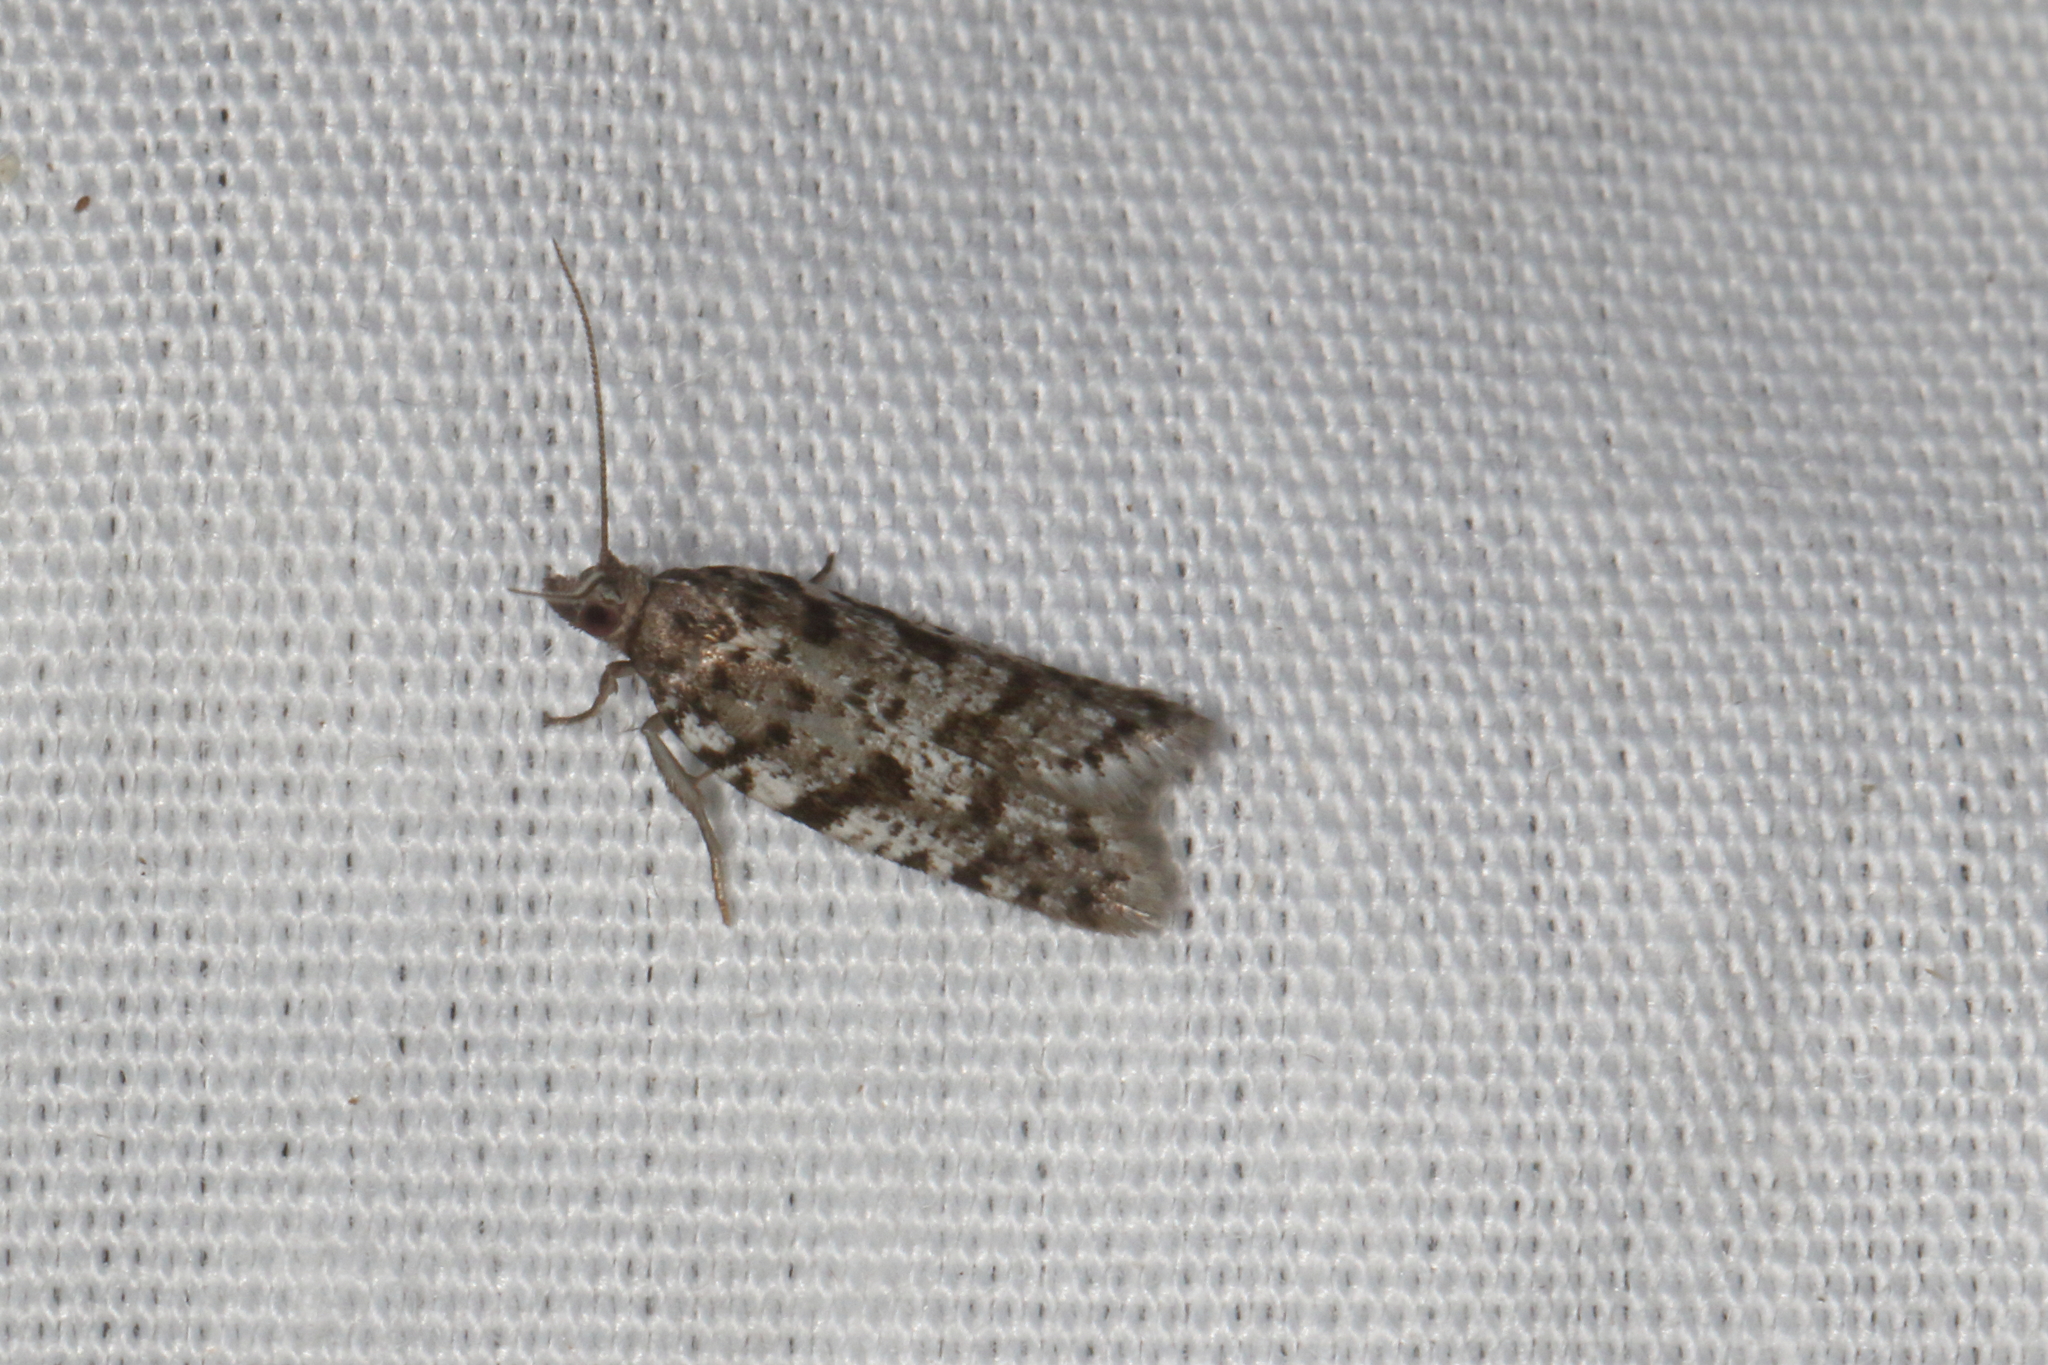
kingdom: Animalia
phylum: Arthropoda
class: Insecta
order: Lepidoptera
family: Tortricidae
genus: Ericodesma
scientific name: Ericodesma scruposa
